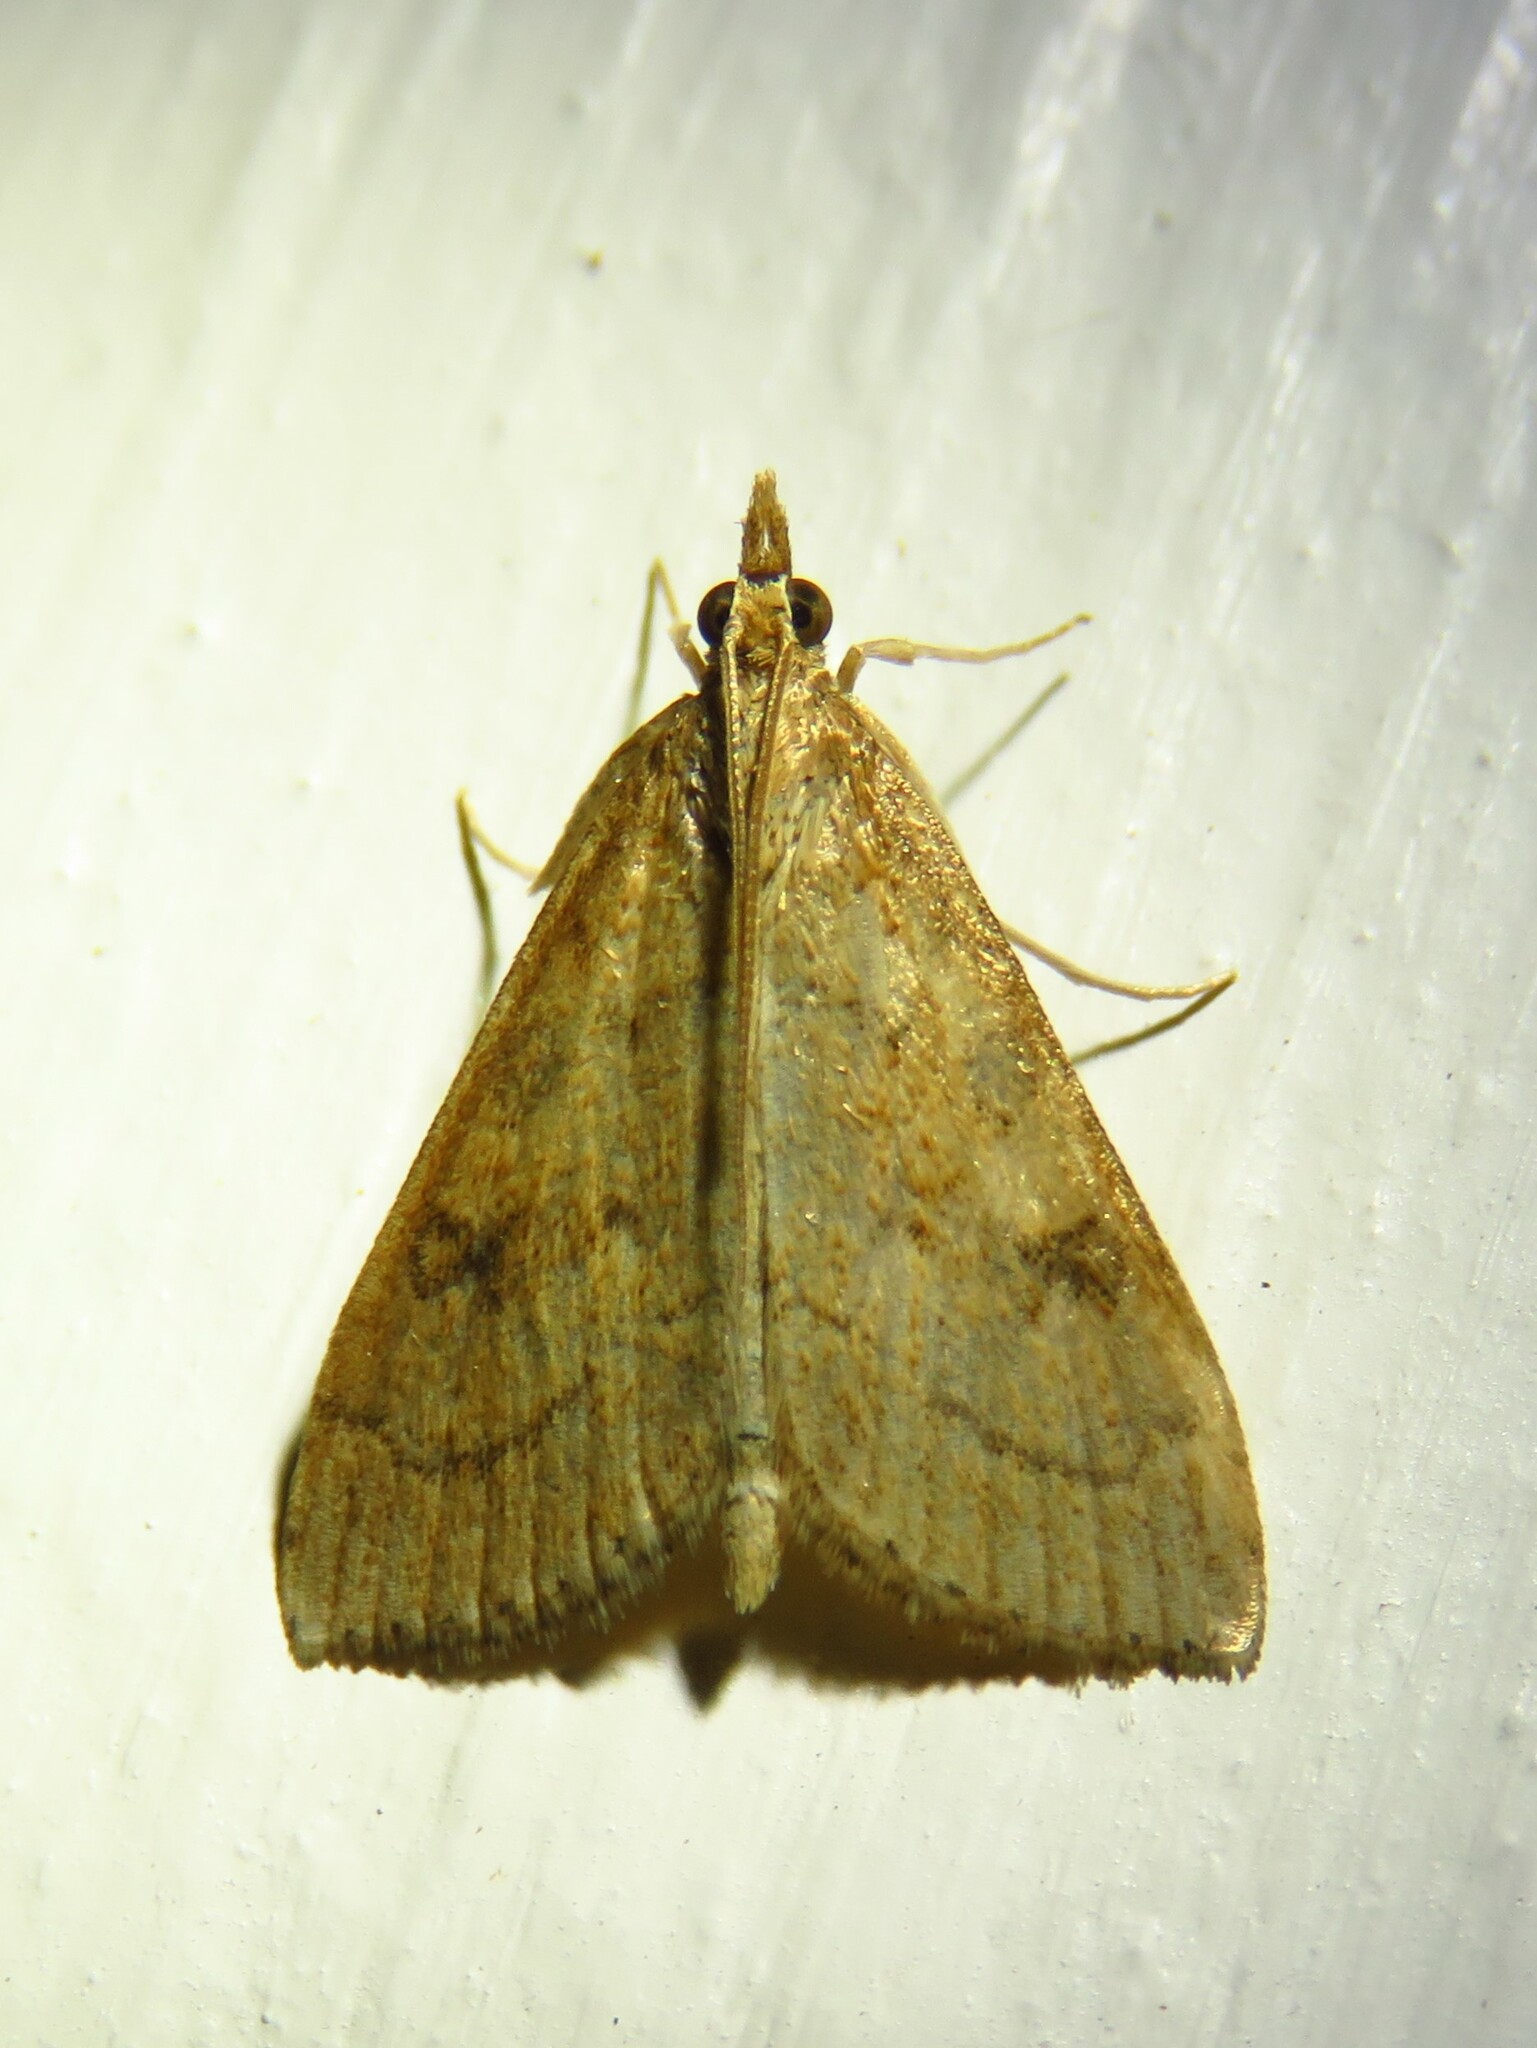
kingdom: Animalia
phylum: Arthropoda
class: Insecta
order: Lepidoptera
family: Crambidae
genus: Udea
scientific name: Udea rubigalis
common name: Celery leaftier moth
